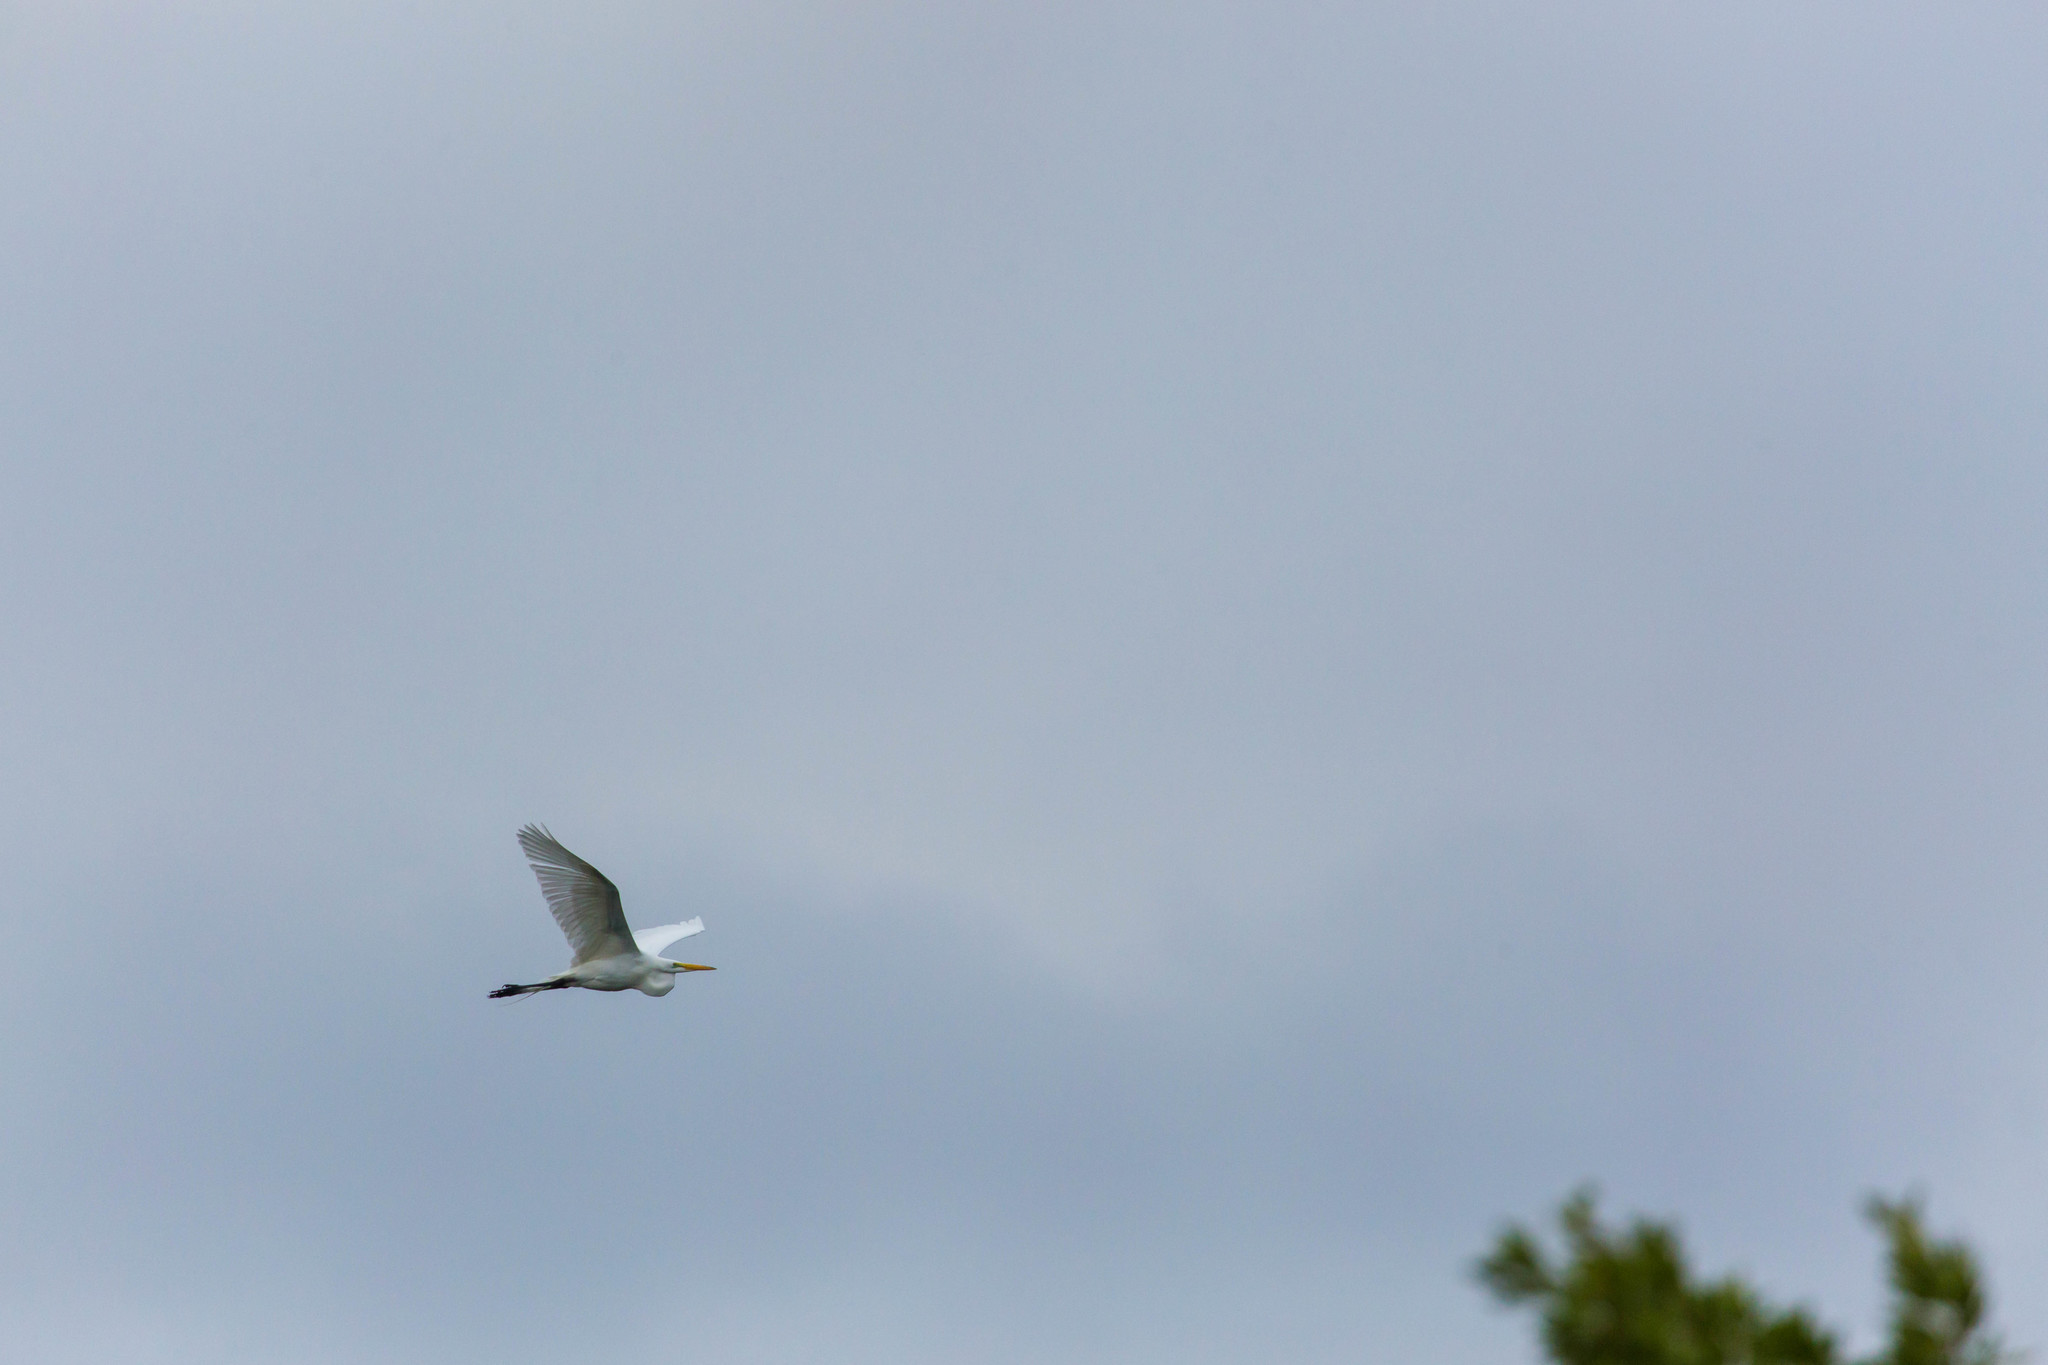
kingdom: Animalia
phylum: Chordata
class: Aves
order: Pelecaniformes
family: Ardeidae
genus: Ardea
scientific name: Ardea alba
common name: Great egret
